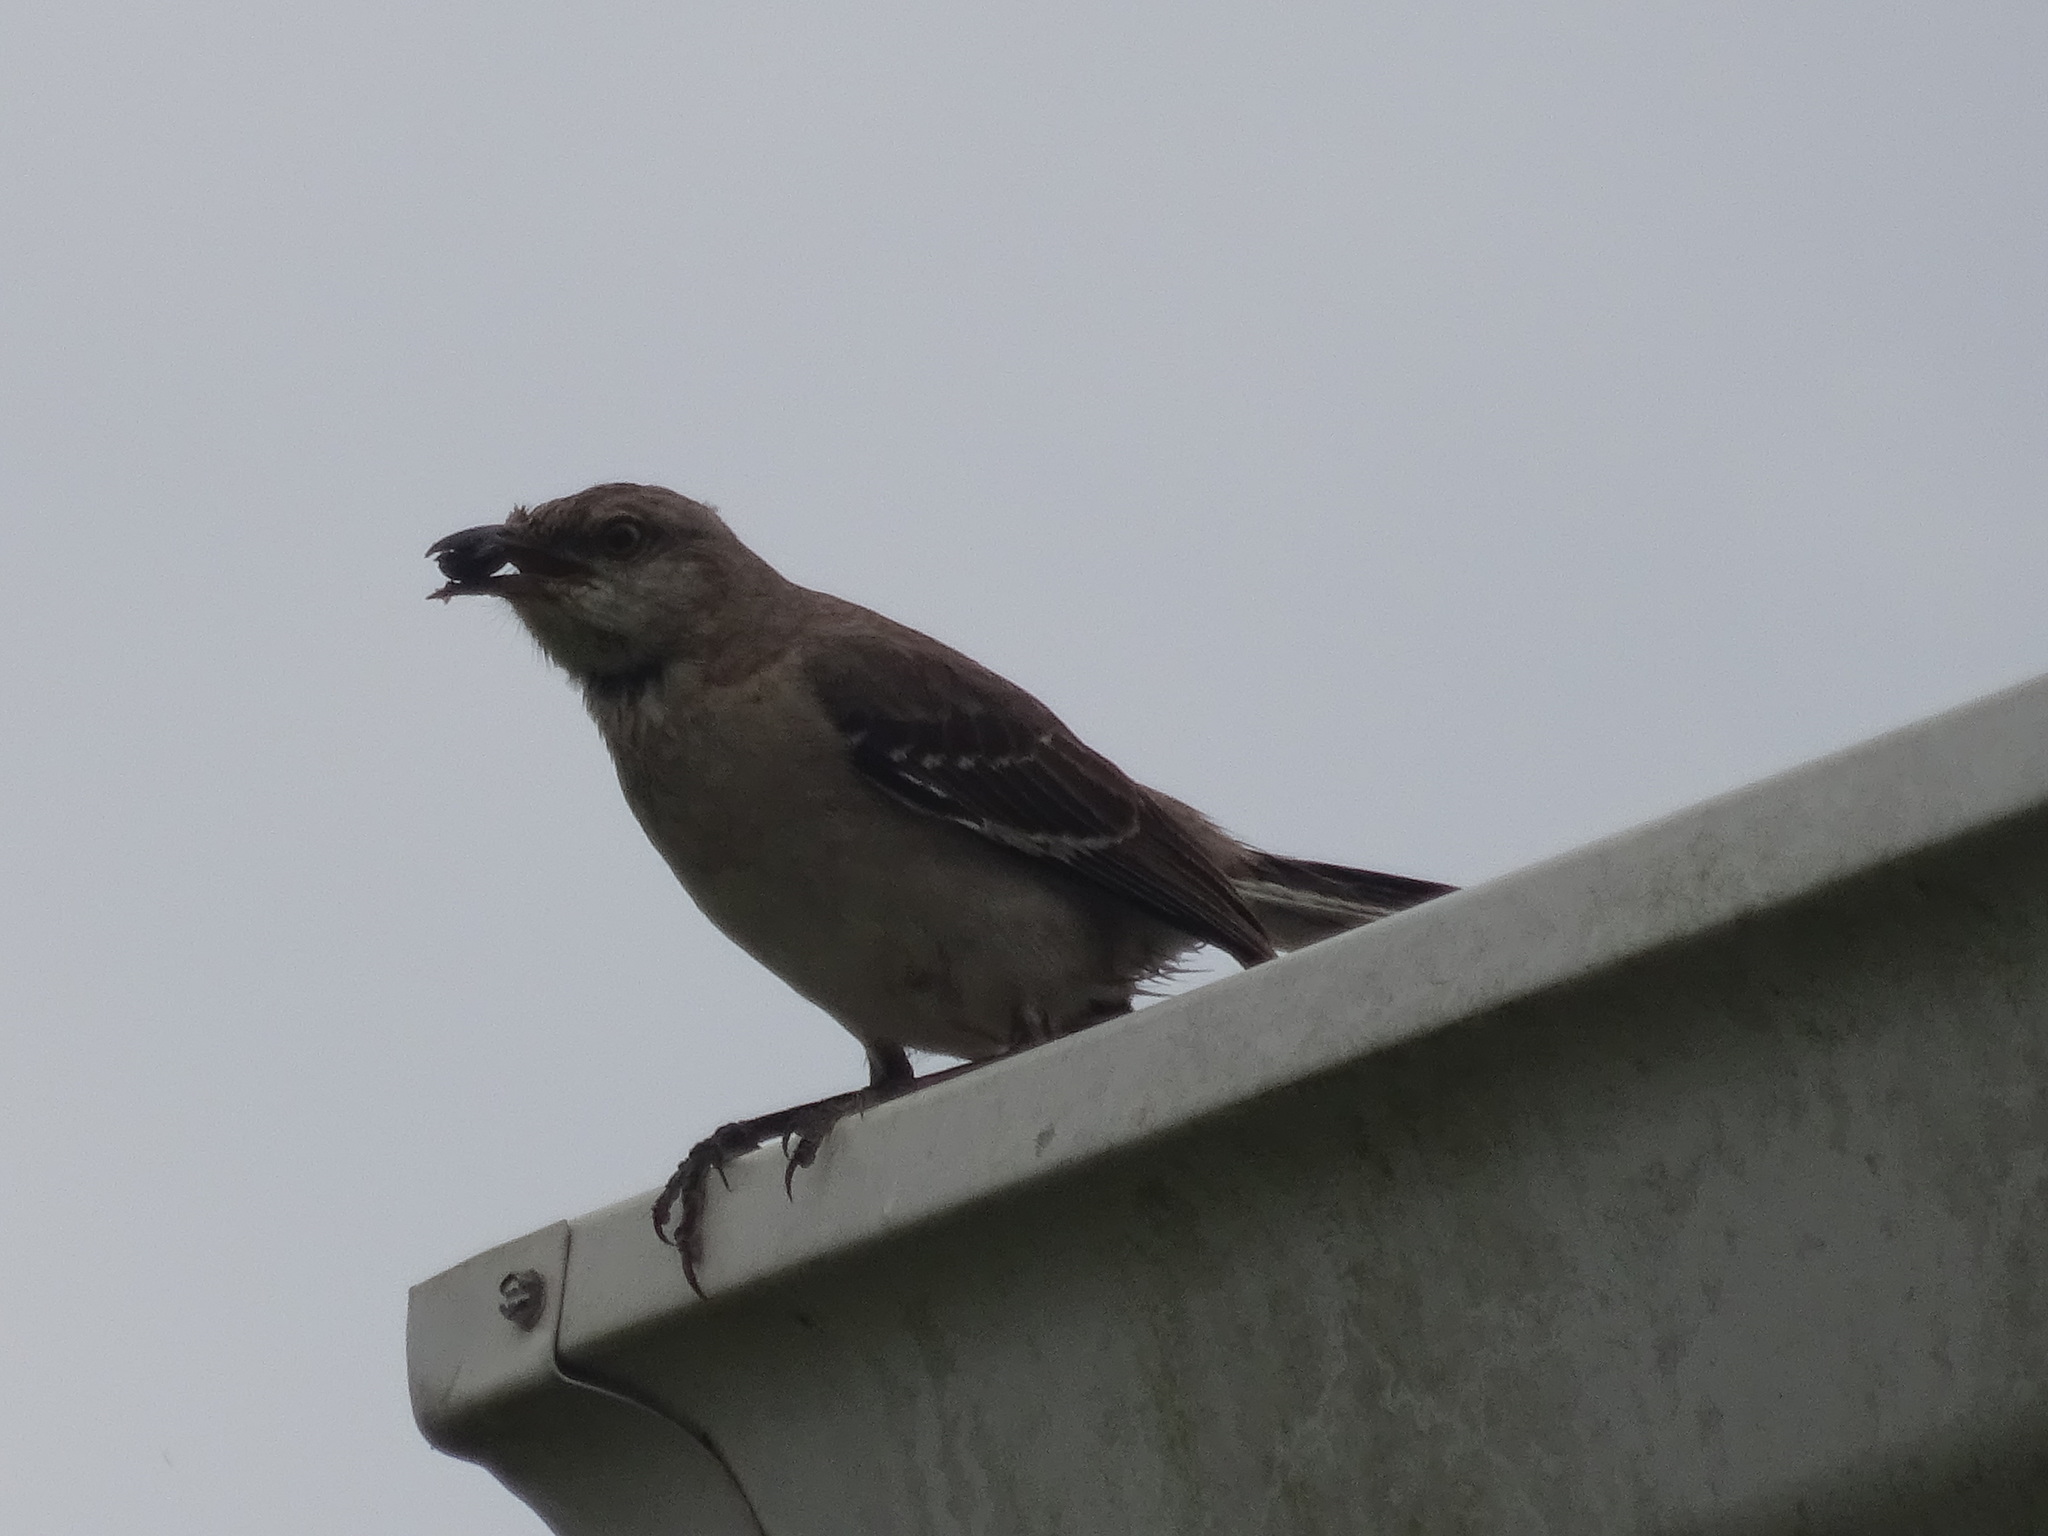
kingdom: Animalia
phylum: Chordata
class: Aves
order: Passeriformes
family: Mimidae
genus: Mimus
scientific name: Mimus polyglottos
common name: Northern mockingbird
